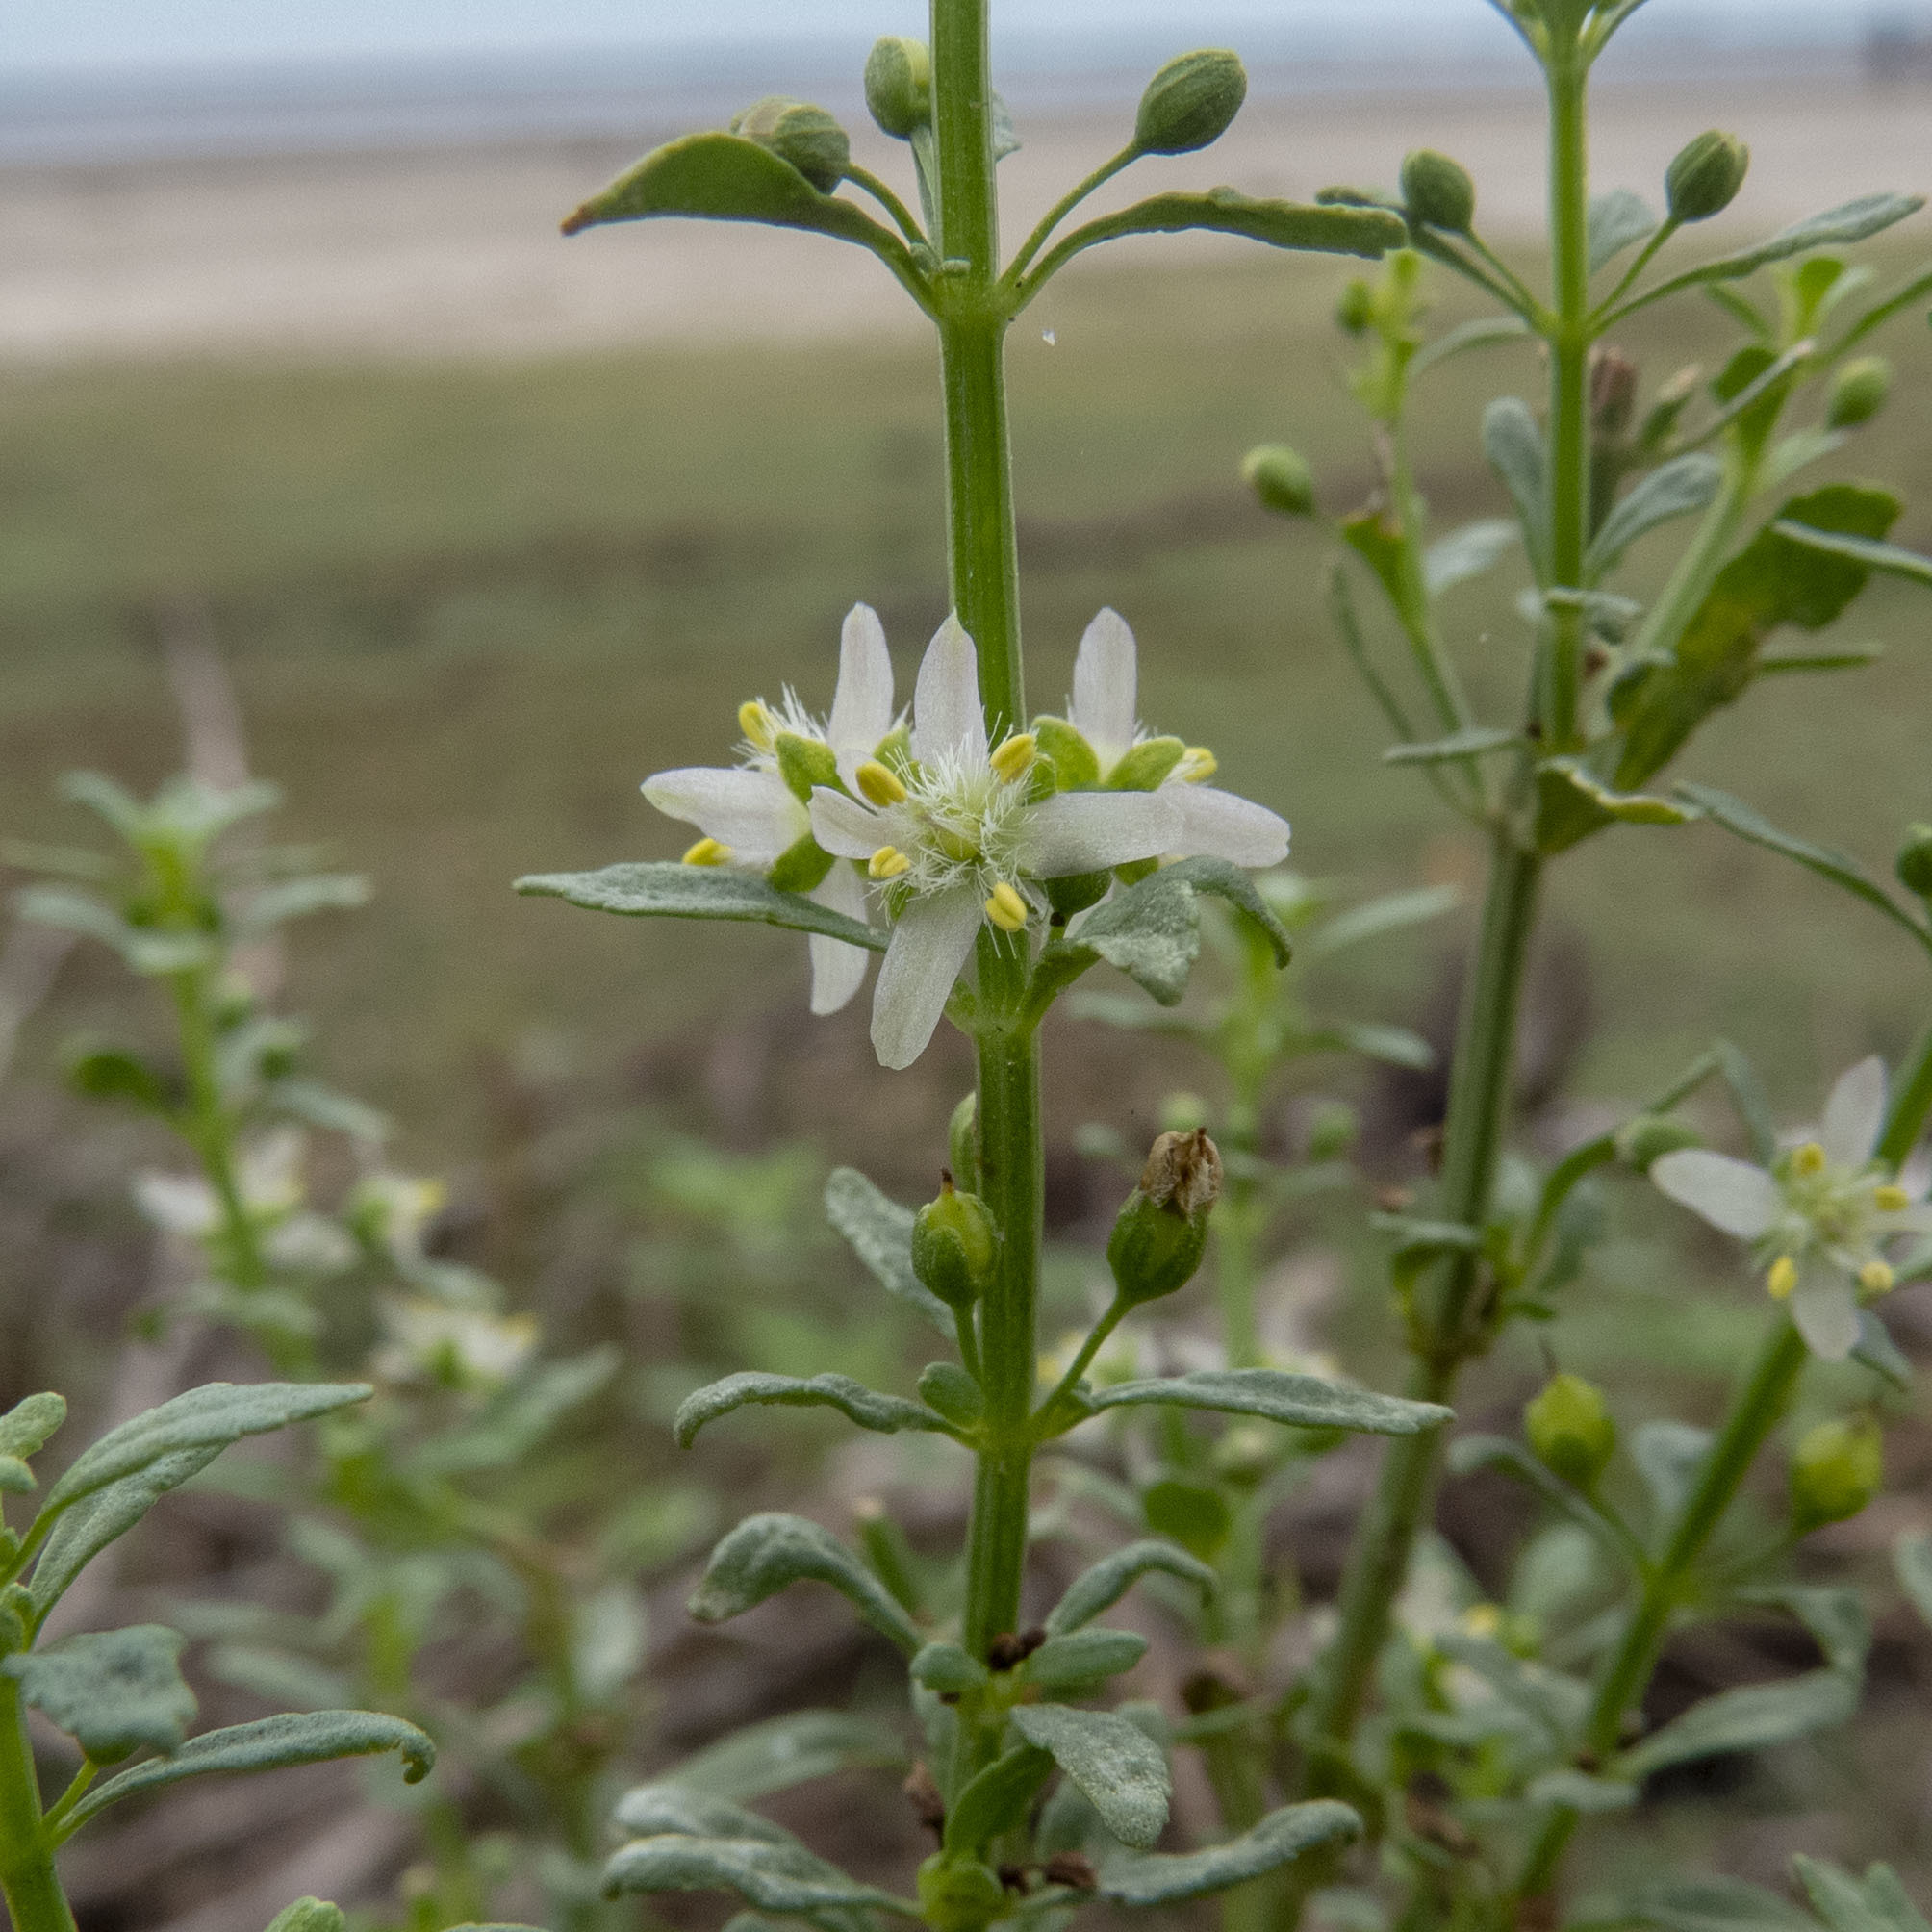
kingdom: Plantae
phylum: Tracheophyta
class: Magnoliopsida
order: Lamiales
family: Plantaginaceae
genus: Scoparia
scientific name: Scoparia dulcis
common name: Scoparia-weed
